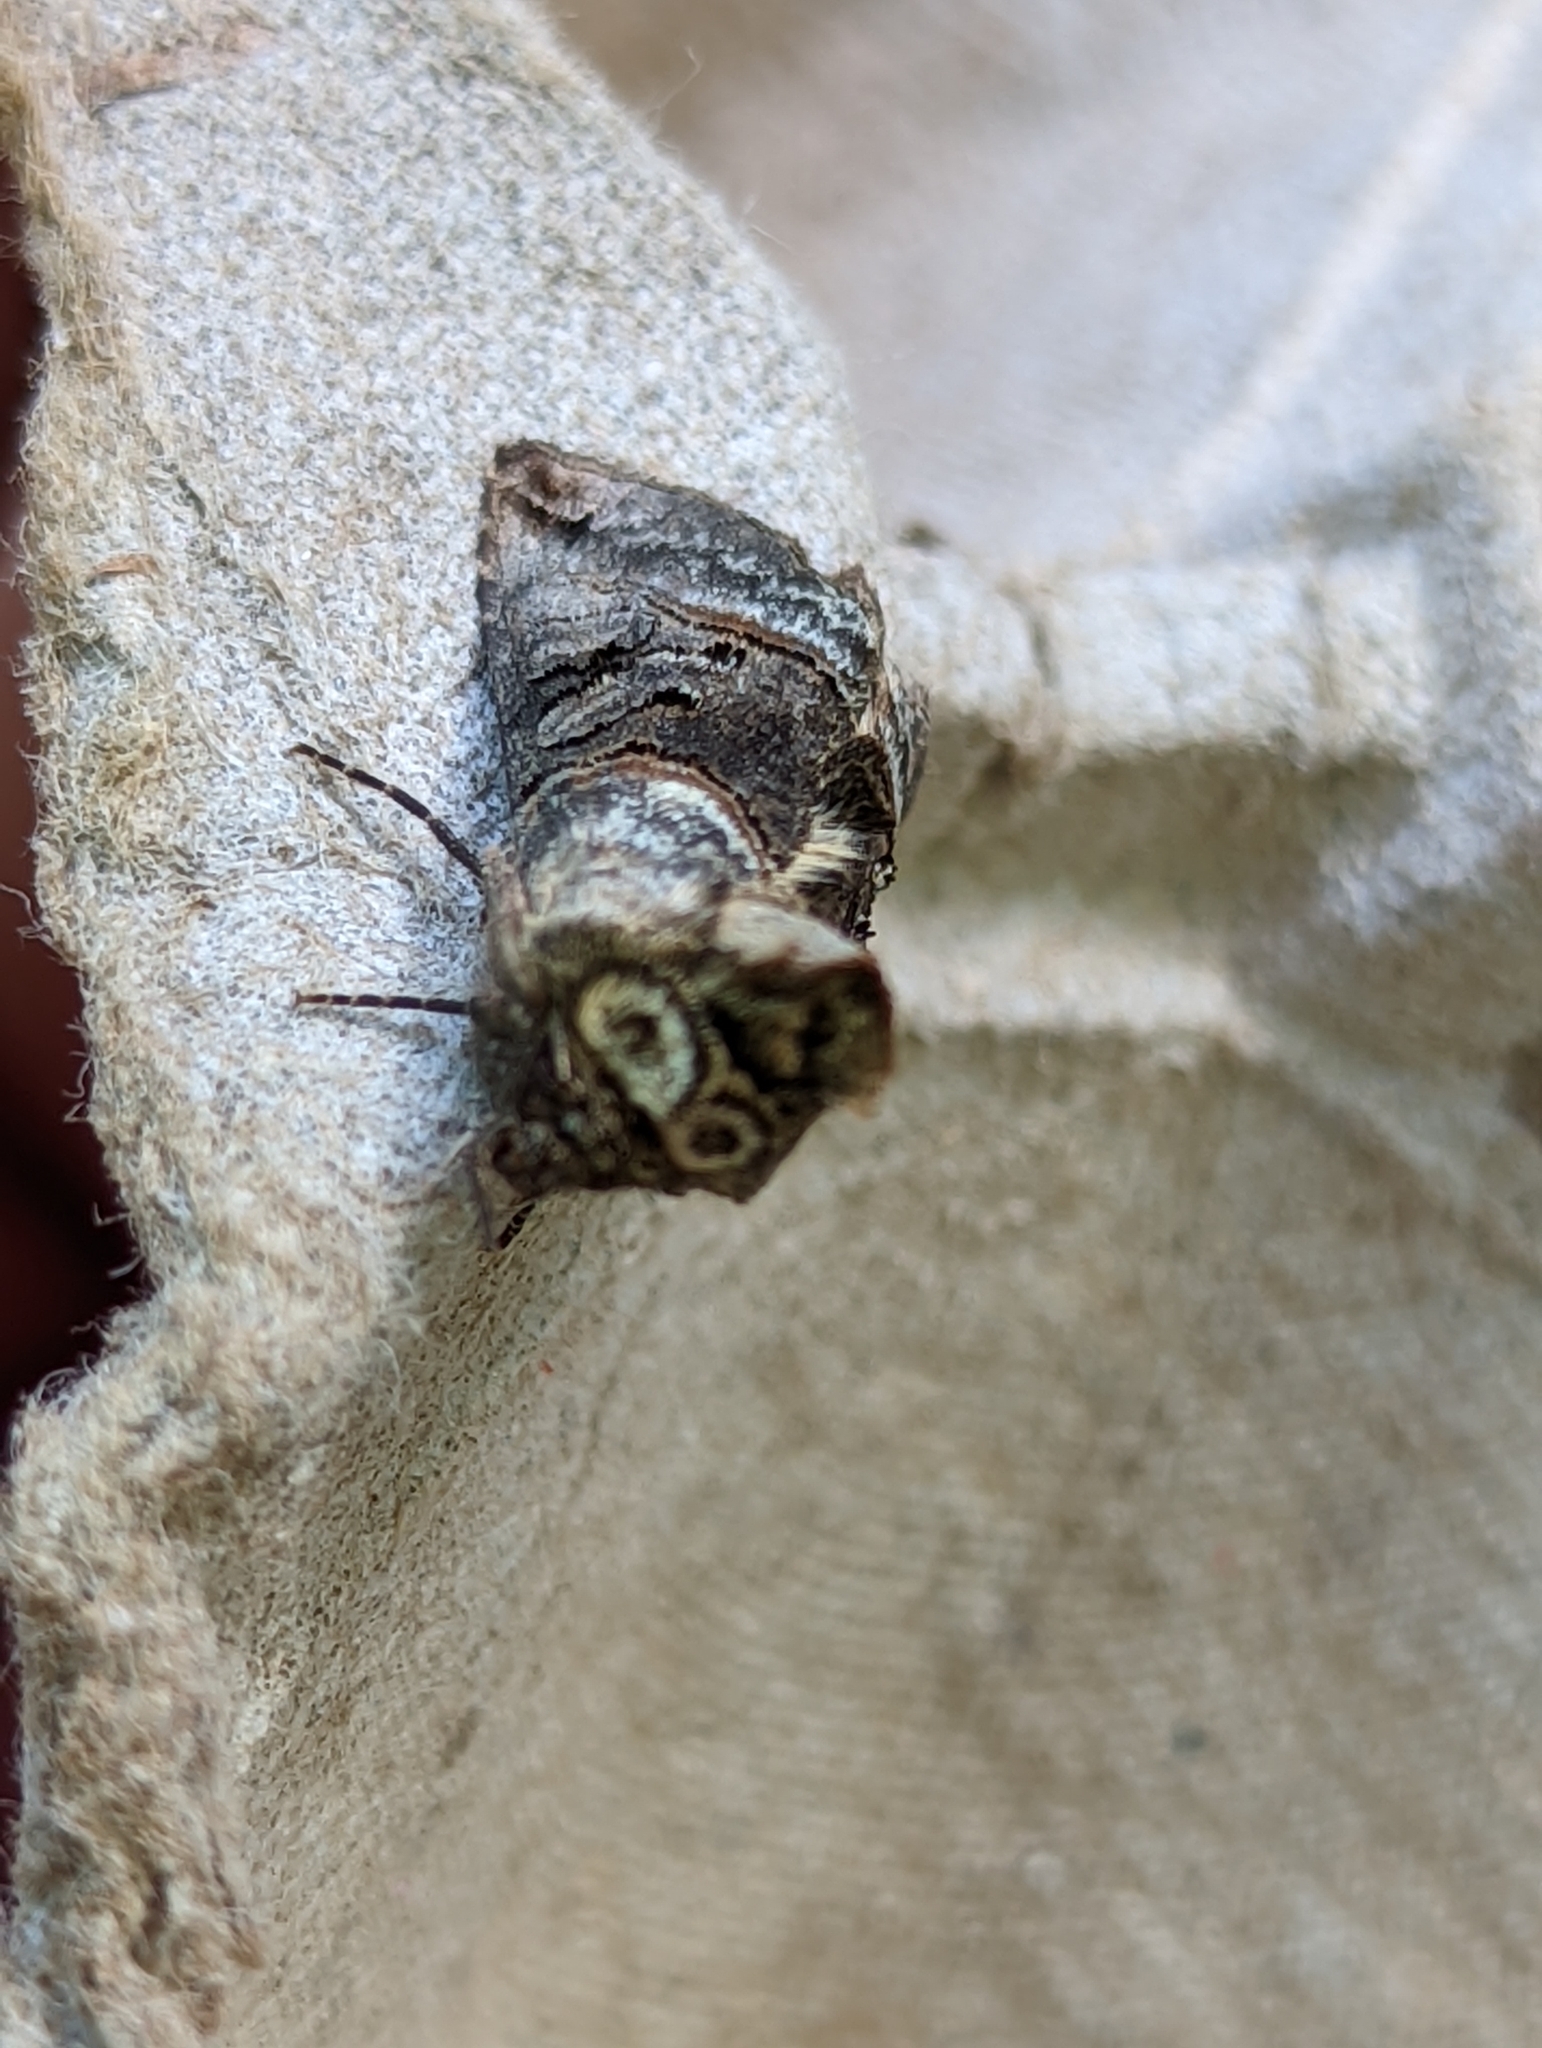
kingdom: Animalia
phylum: Arthropoda
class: Insecta
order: Lepidoptera
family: Noctuidae
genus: Abrostola
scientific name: Abrostola tripartita
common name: Spectacle
